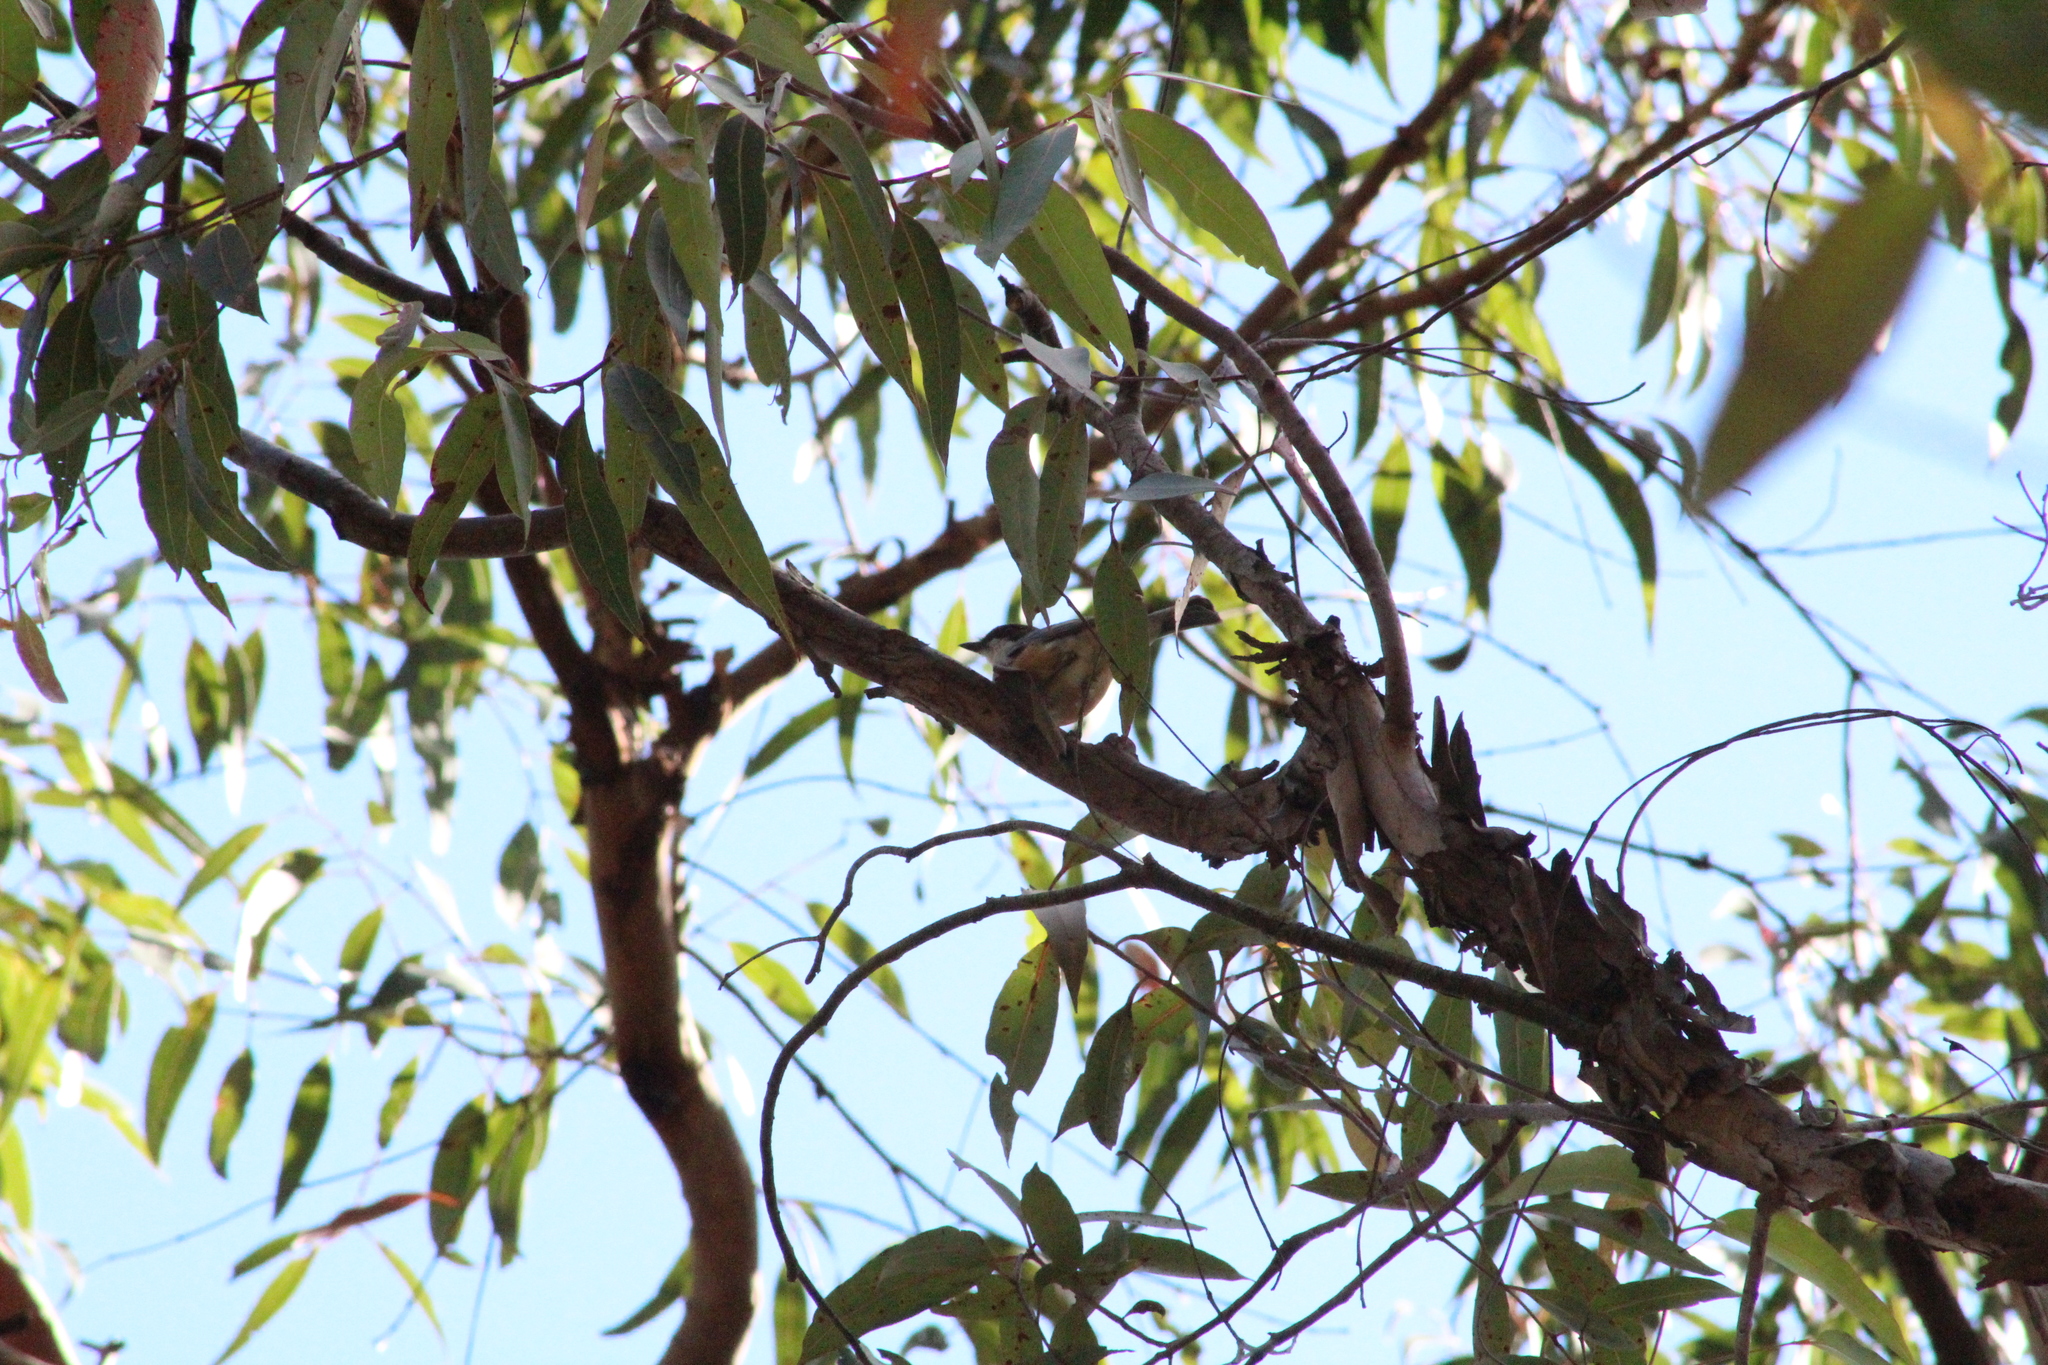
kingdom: Animalia
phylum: Chordata
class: Aves
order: Passeriformes
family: Pachycephalidae
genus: Pachycephala
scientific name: Pachycephala rufiventris
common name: Rufous whistler
